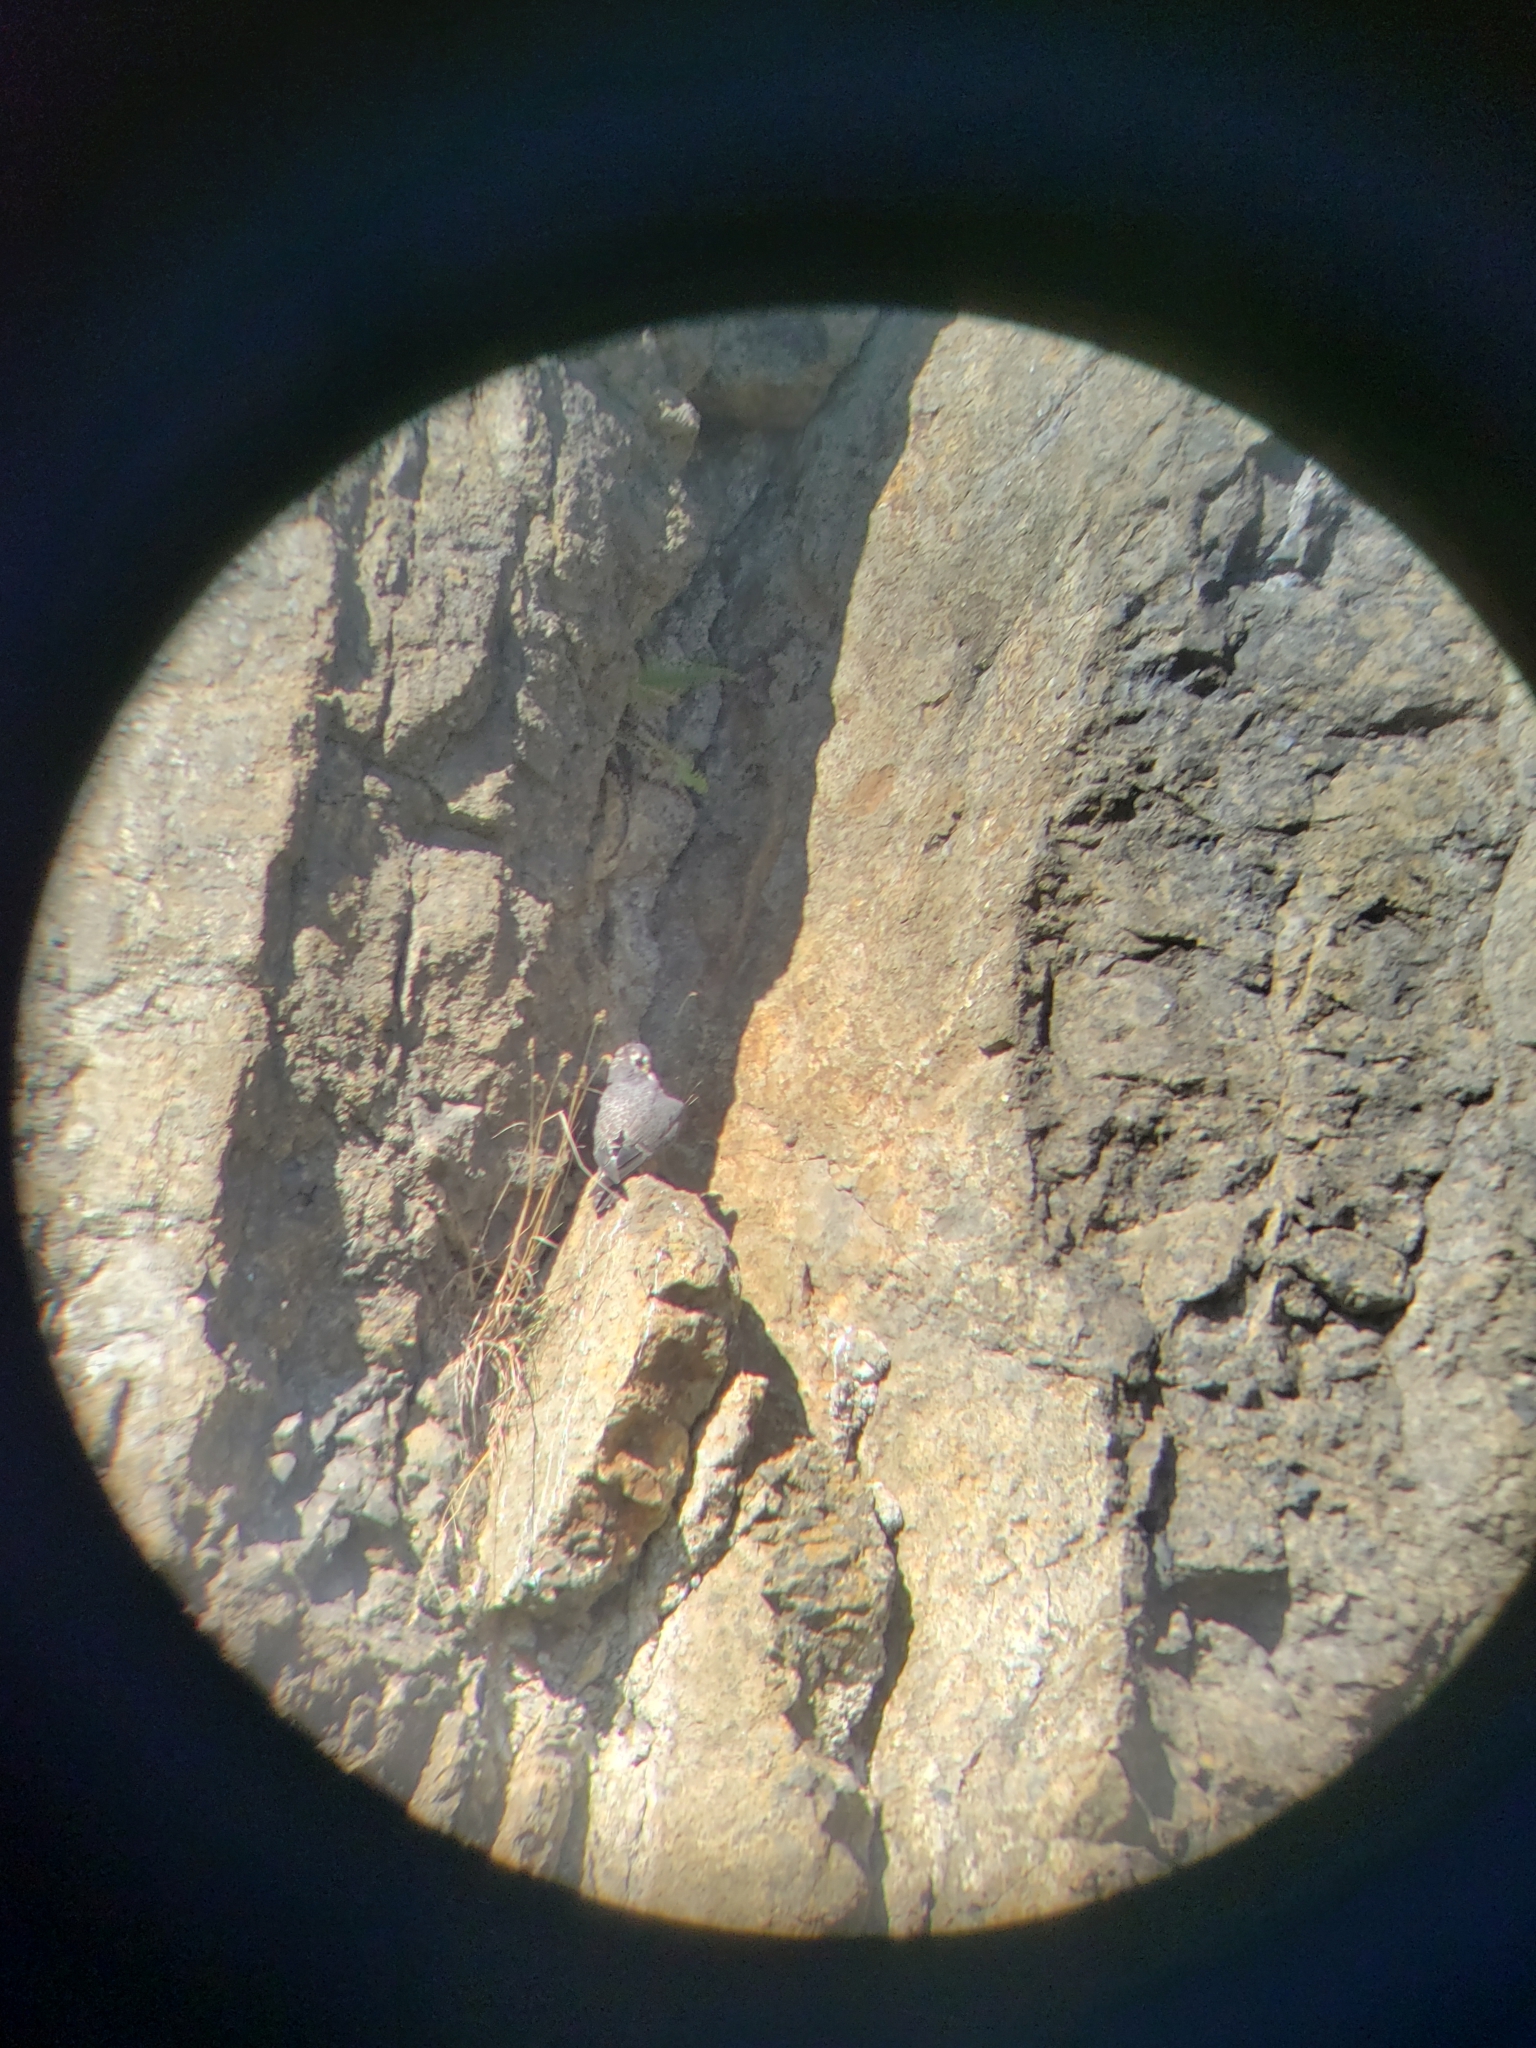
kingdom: Animalia
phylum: Chordata
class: Aves
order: Falconiformes
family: Falconidae
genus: Falco
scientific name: Falco peregrinus
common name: Peregrine falcon
